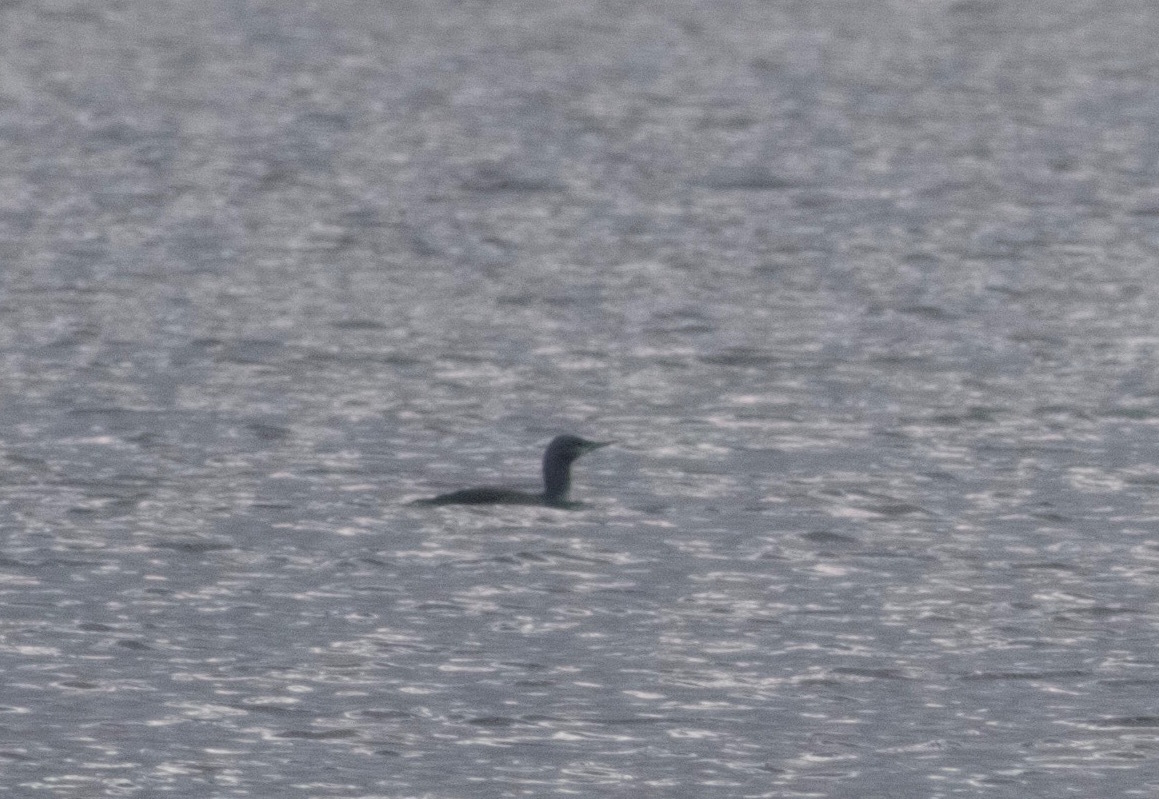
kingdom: Animalia
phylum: Chordata
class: Aves
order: Gaviiformes
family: Gaviidae
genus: Gavia
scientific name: Gavia stellata
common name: Red-throated loon
